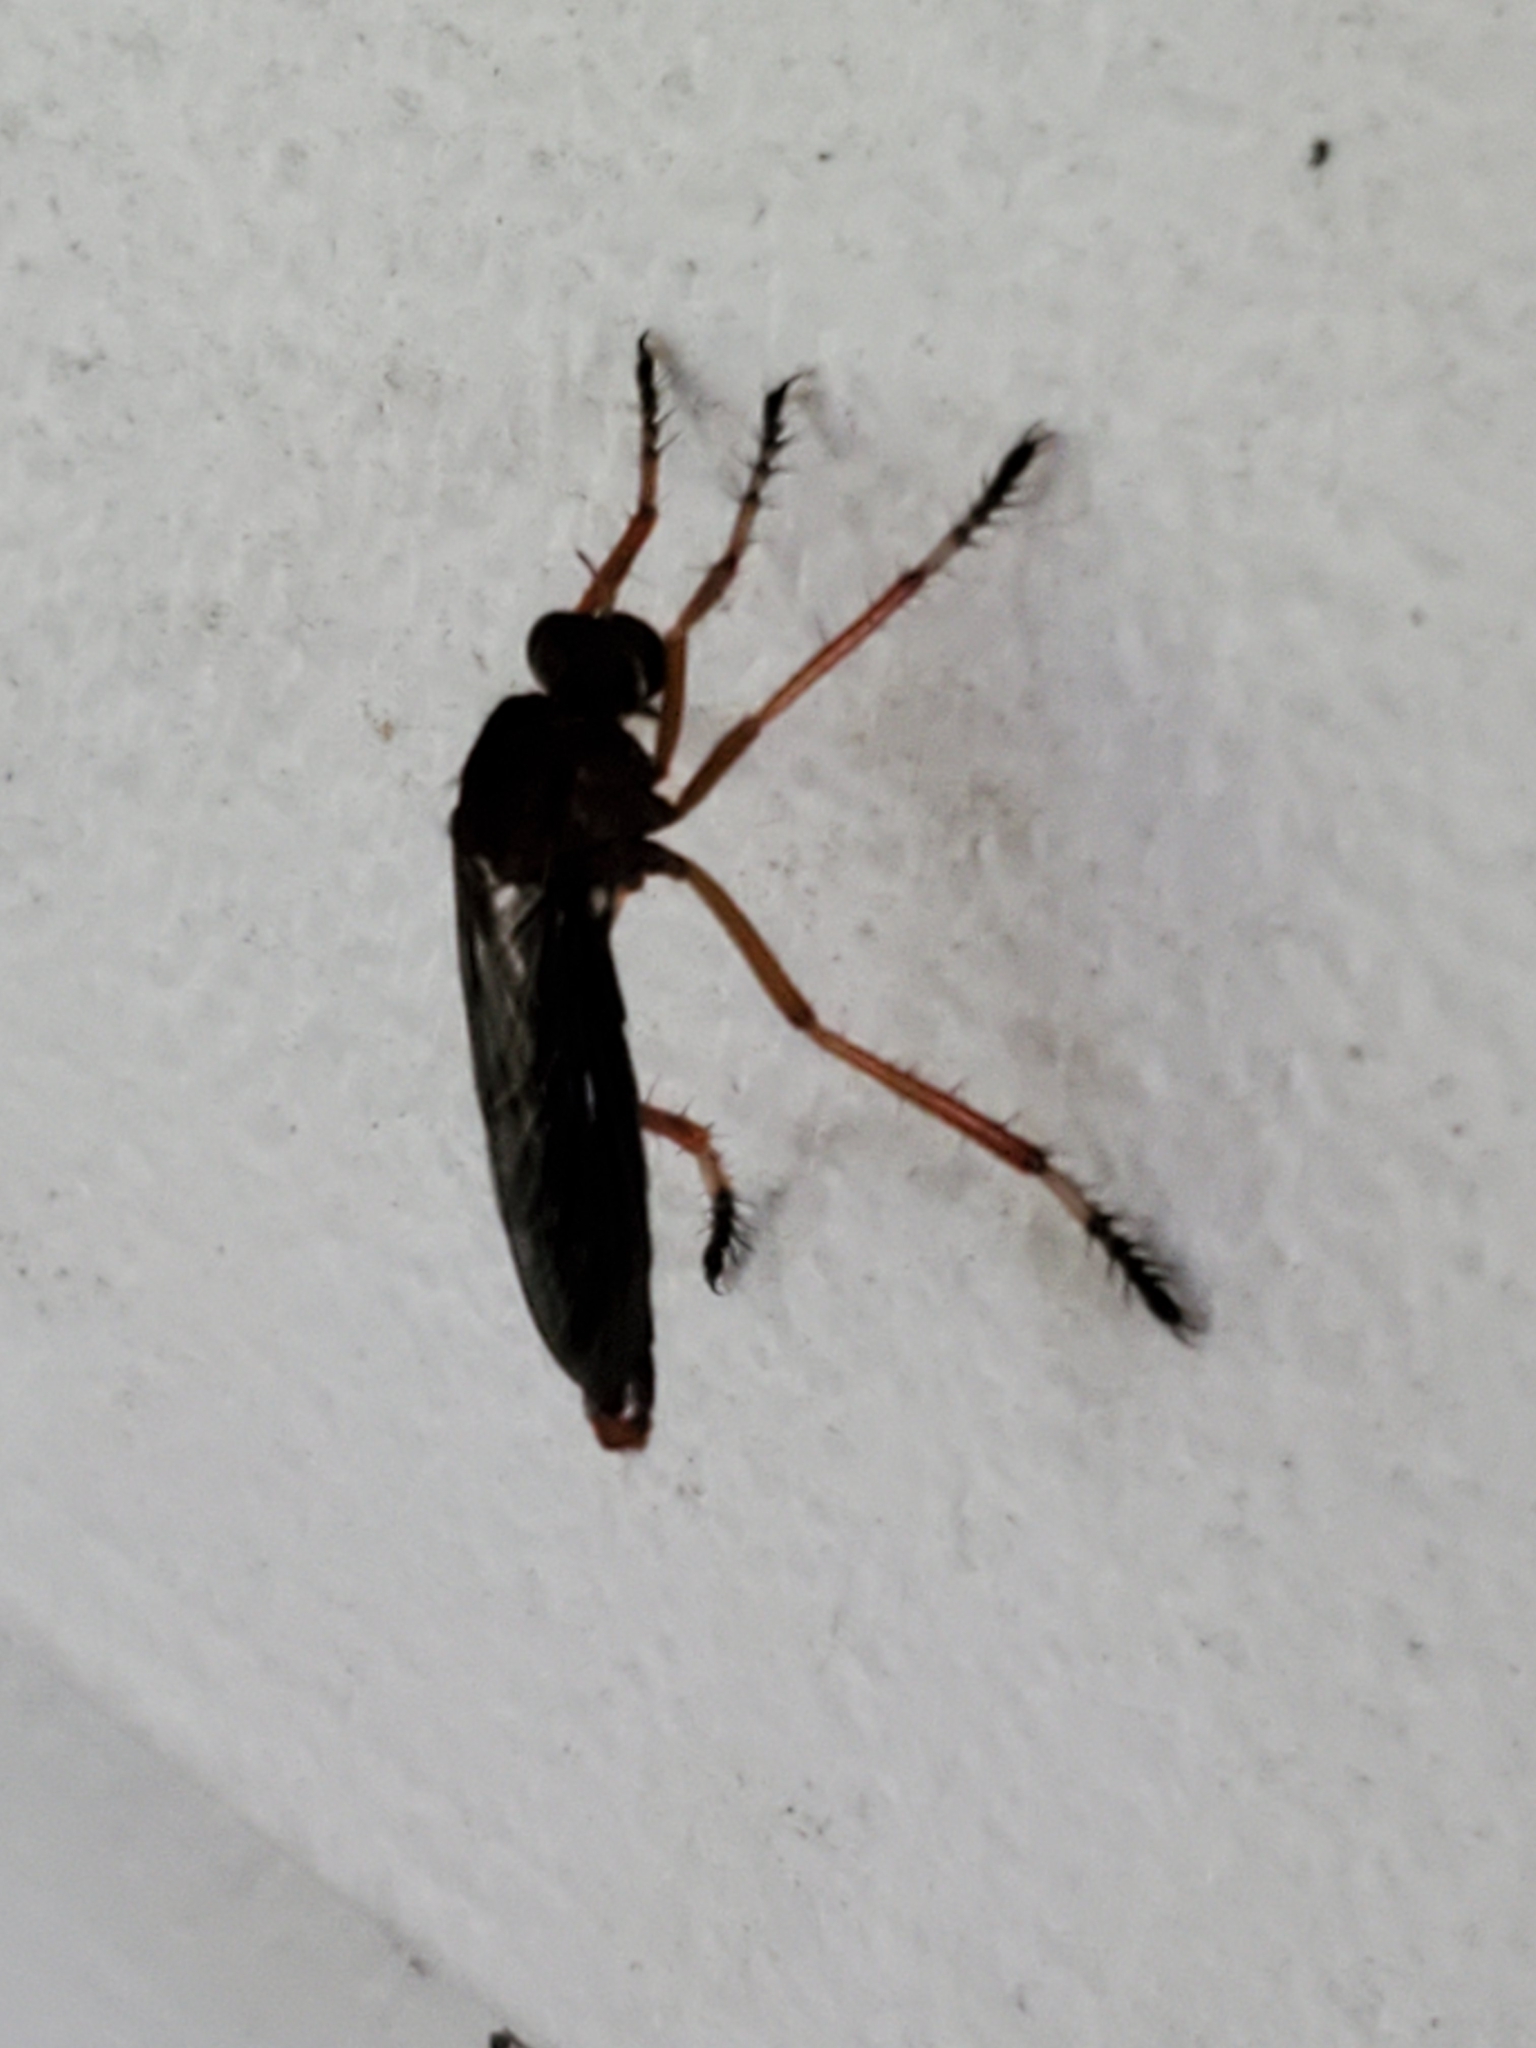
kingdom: Animalia
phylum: Arthropoda
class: Insecta
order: Diptera
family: Asilidae
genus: Diogmites
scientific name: Diogmites platypterus
